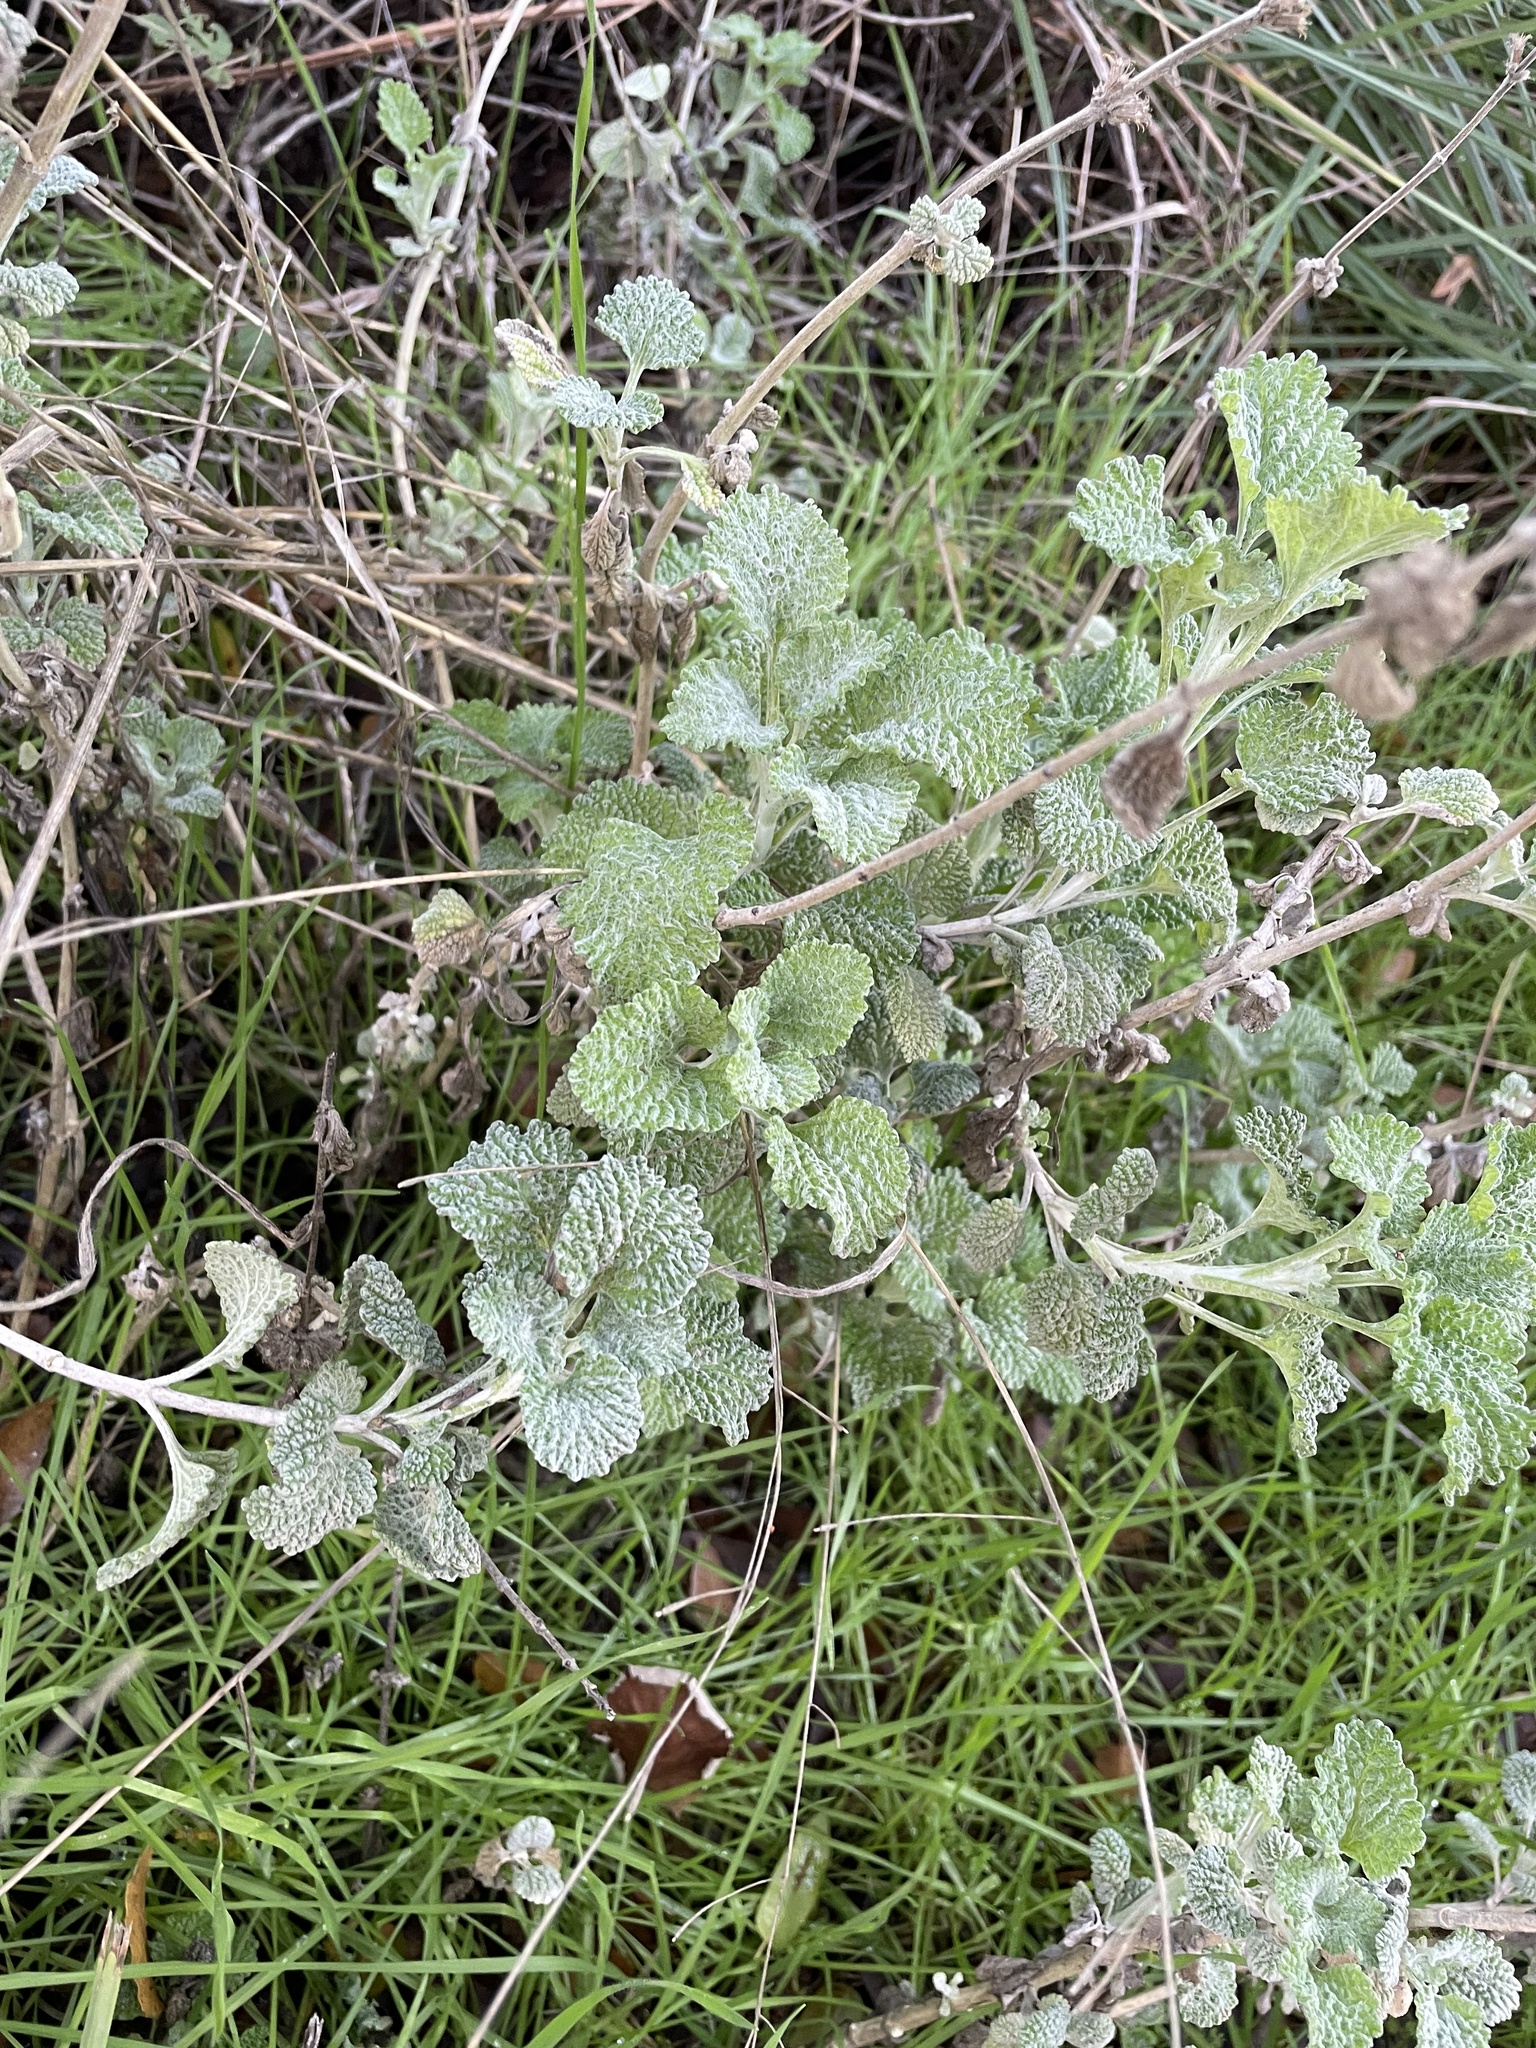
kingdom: Plantae
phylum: Tracheophyta
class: Magnoliopsida
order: Lamiales
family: Lamiaceae
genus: Marrubium
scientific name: Marrubium vulgare
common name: Horehound
